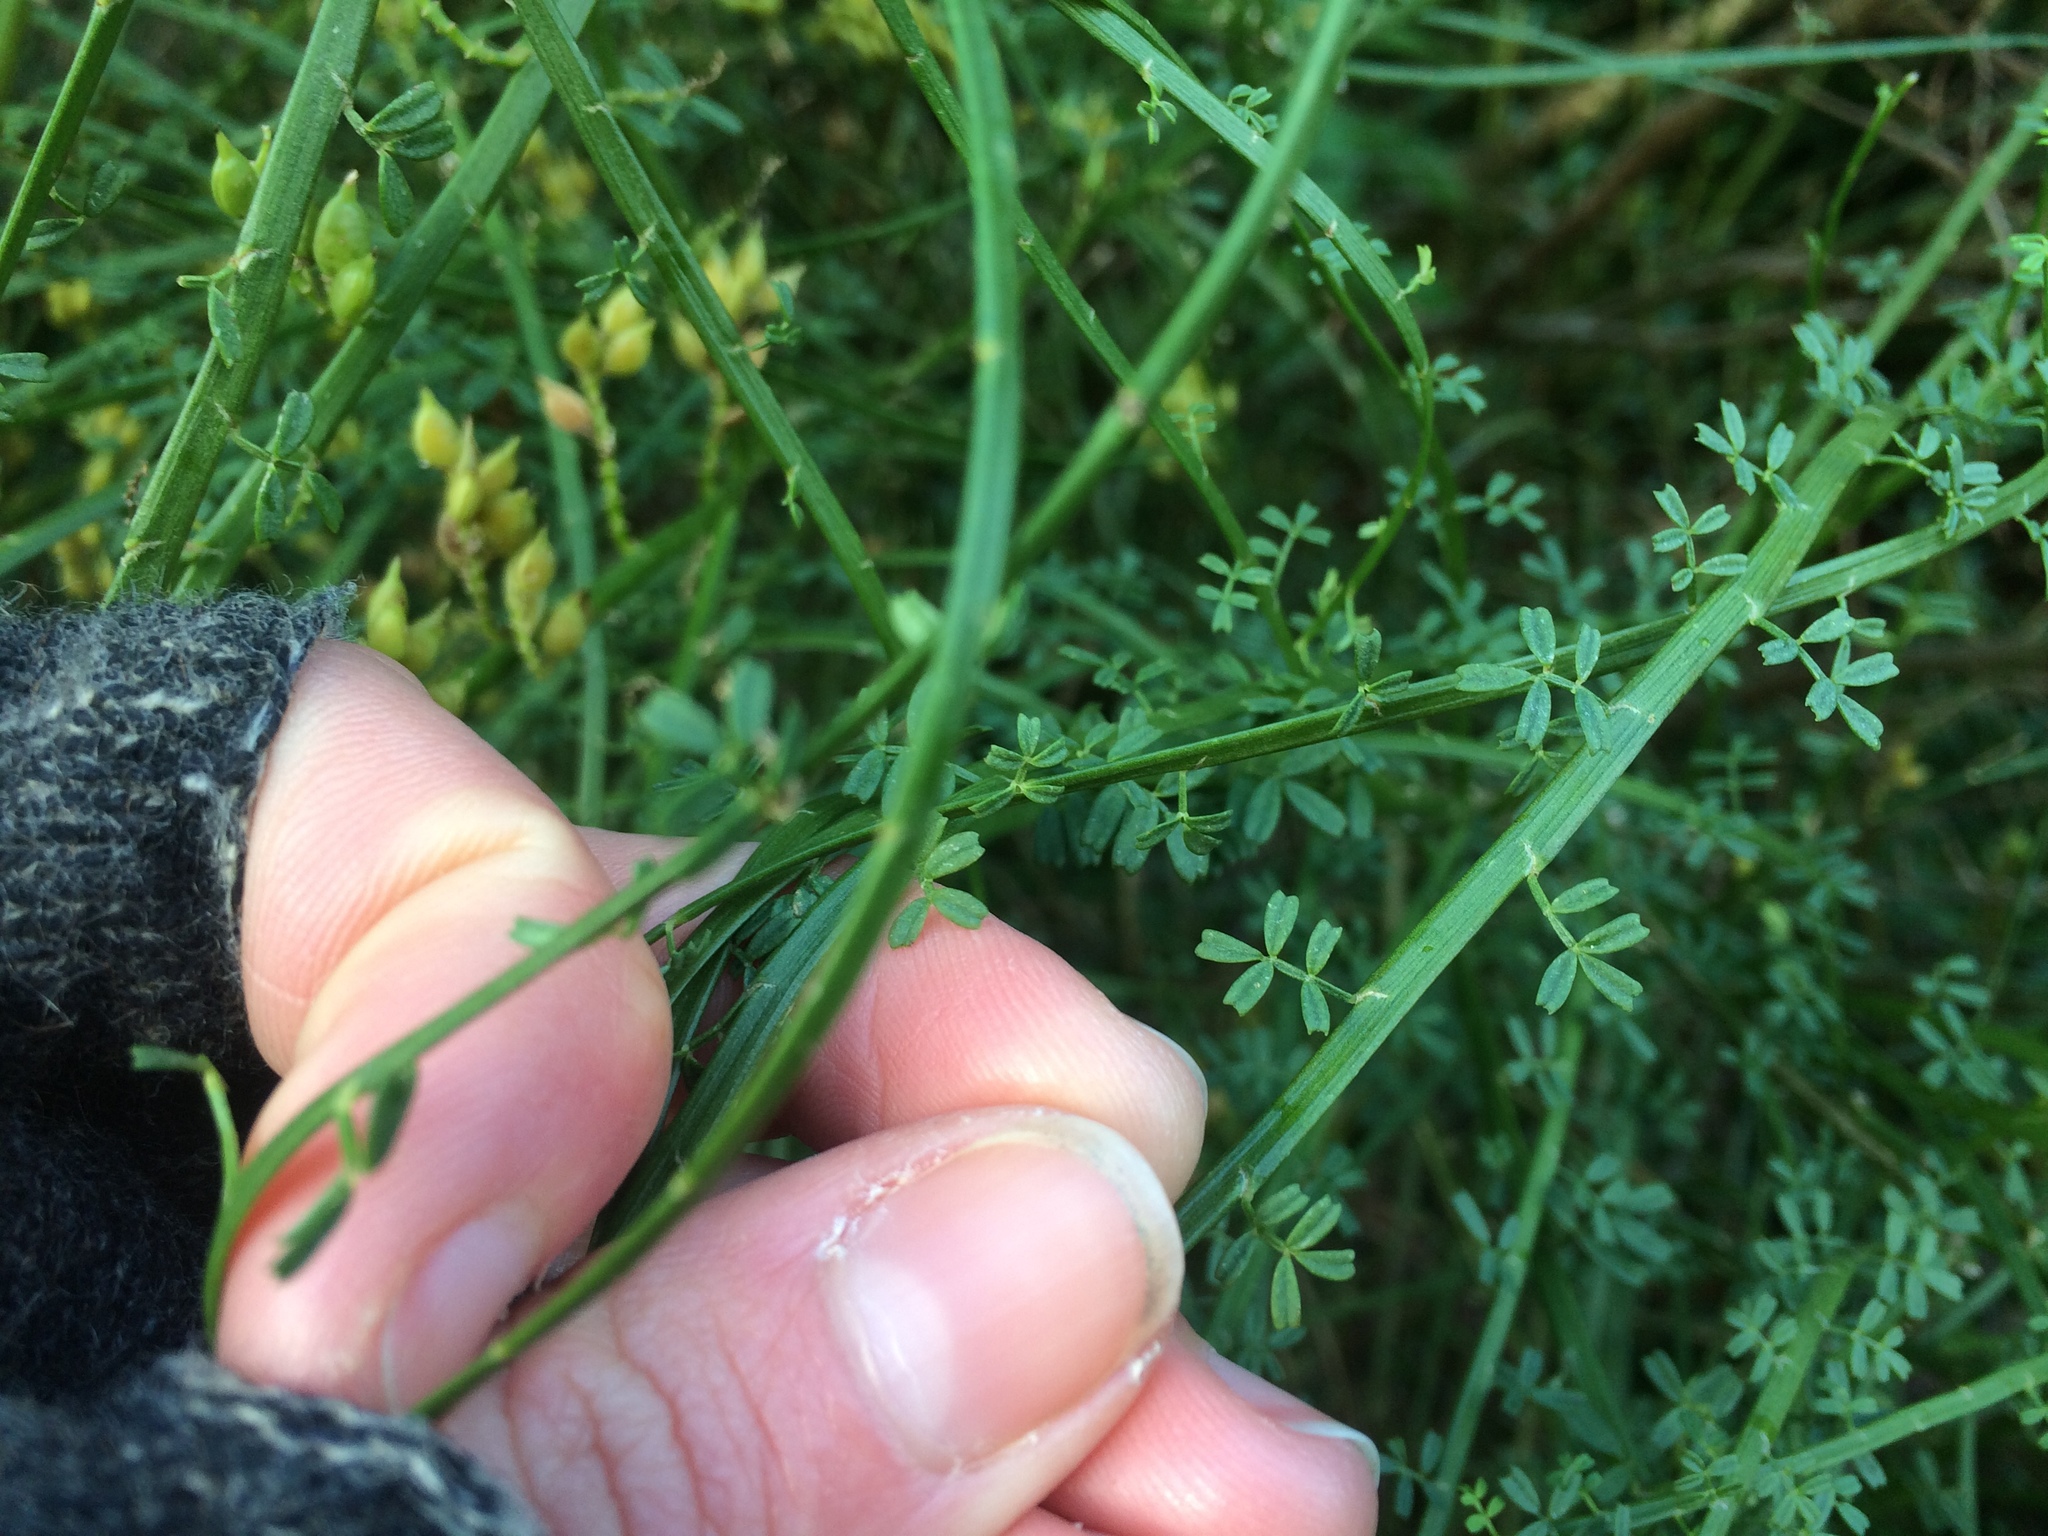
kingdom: Plantae
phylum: Tracheophyta
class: Magnoliopsida
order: Fabales
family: Fabaceae
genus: Carmichaelia
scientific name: Carmichaelia odorata
